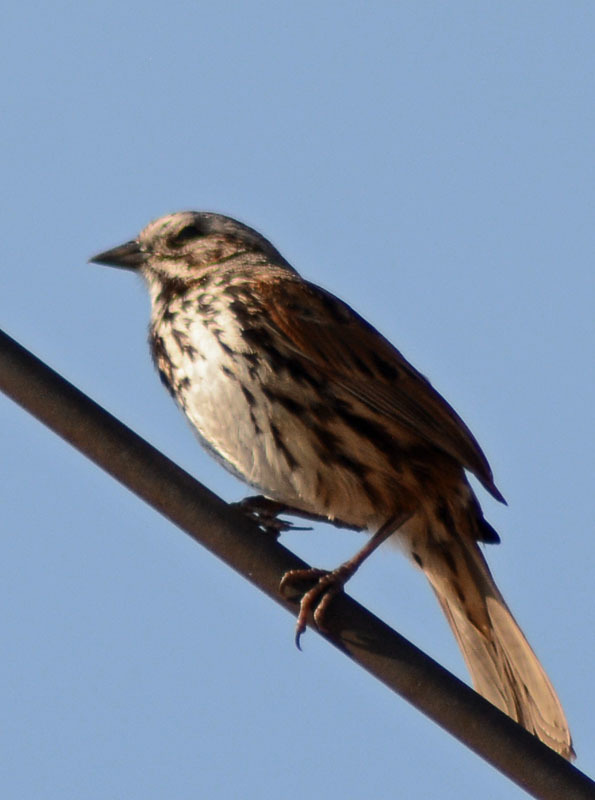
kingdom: Animalia
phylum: Chordata
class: Aves
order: Passeriformes
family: Passerellidae
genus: Melospiza
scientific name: Melospiza melodia
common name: Song sparrow
